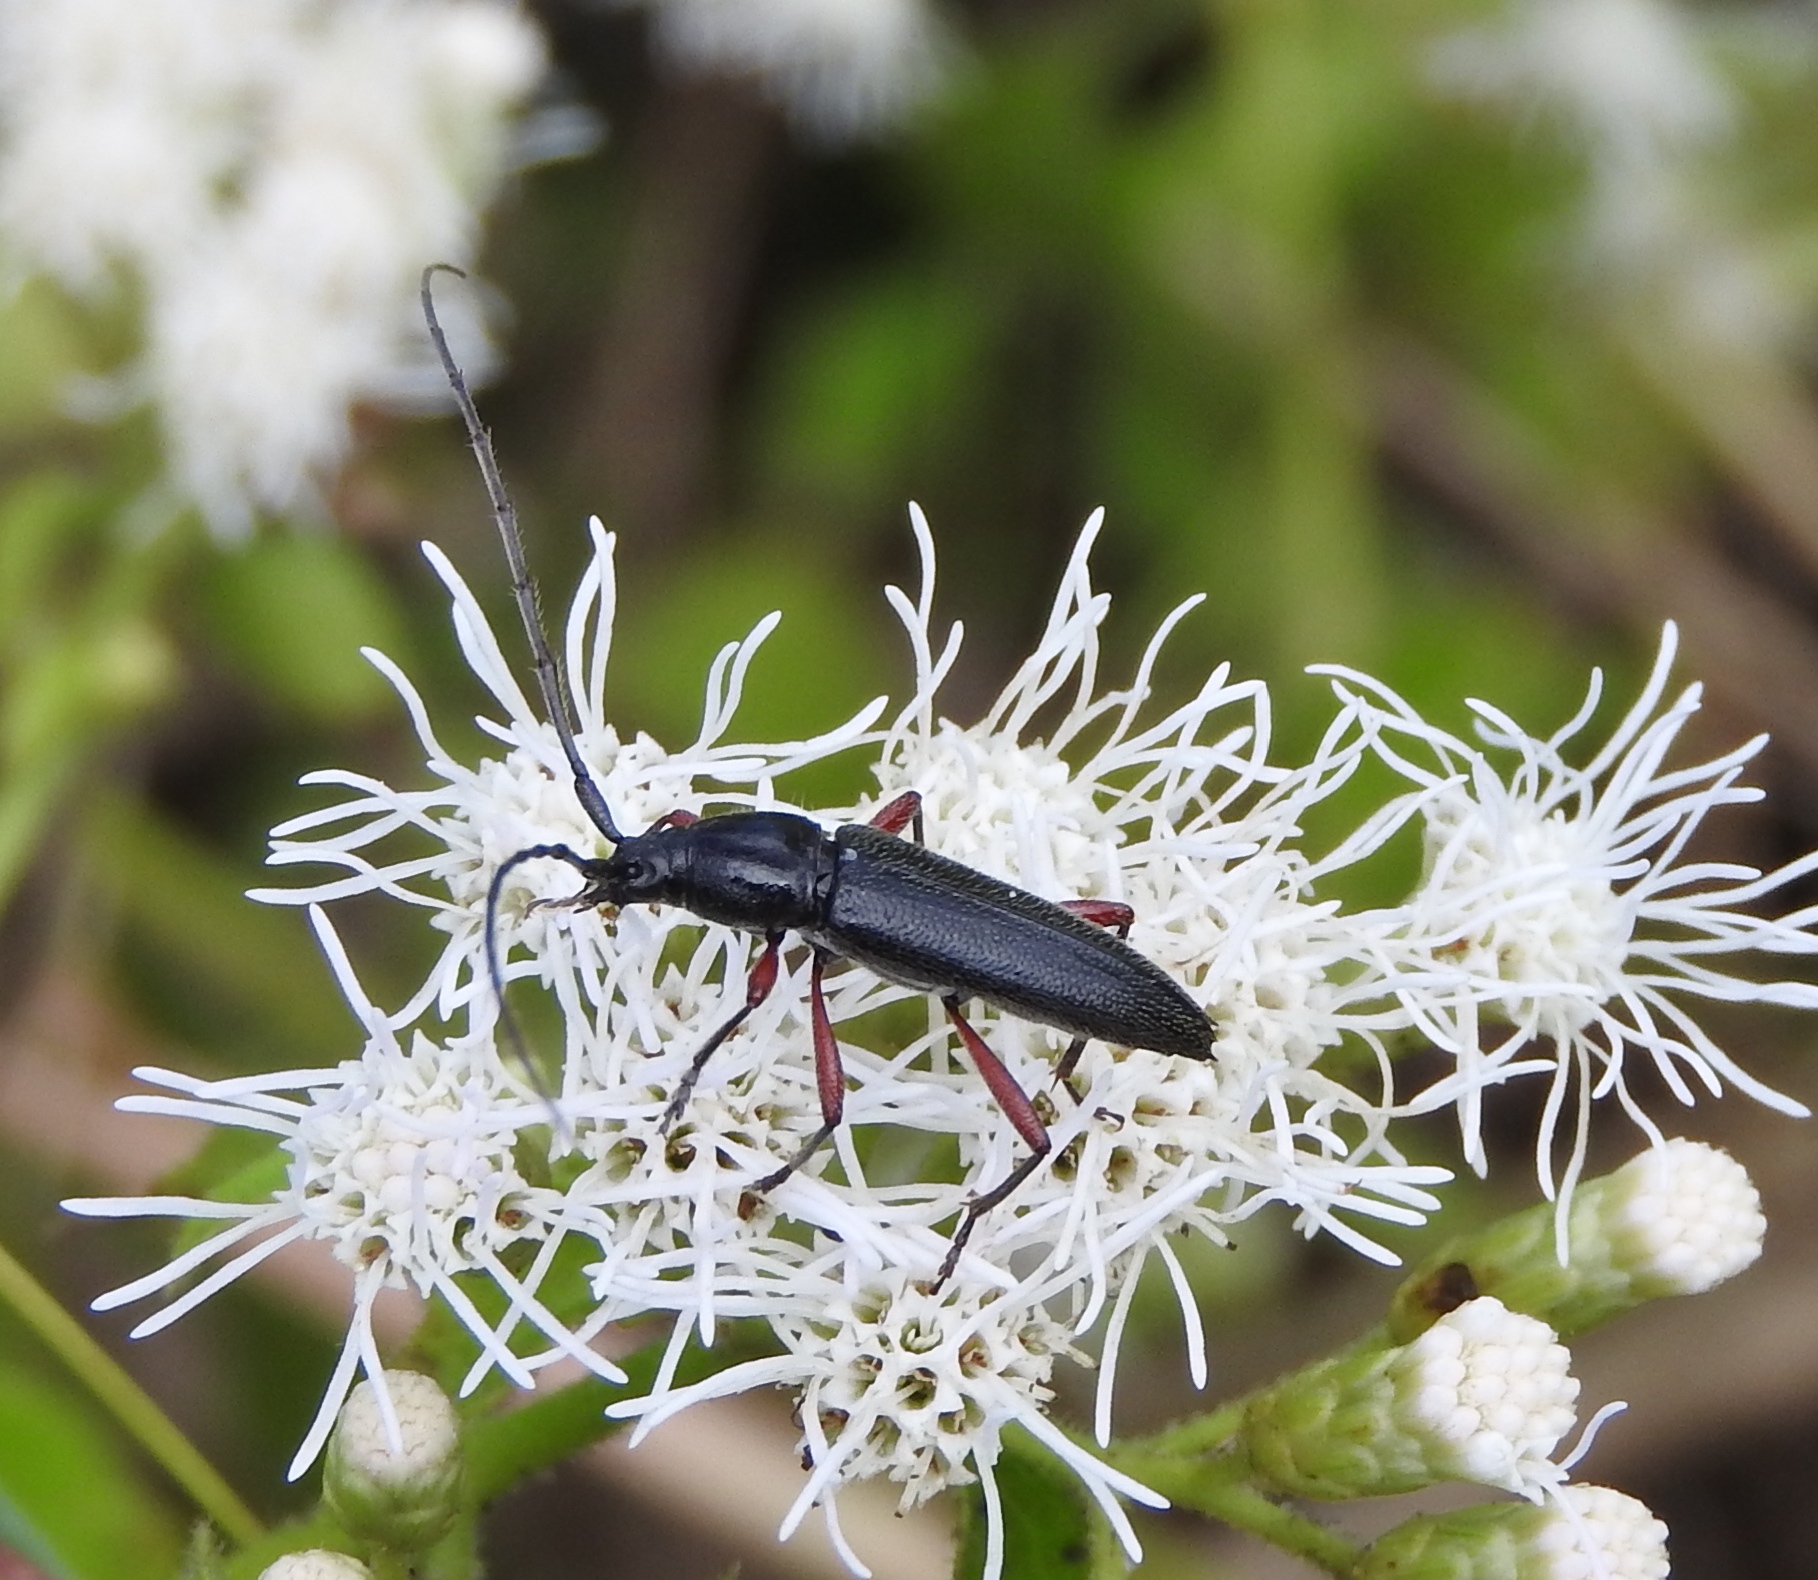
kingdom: Animalia
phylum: Arthropoda
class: Insecta
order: Coleoptera
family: Cerambycidae
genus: Stenosphenus
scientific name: Stenosphenus
